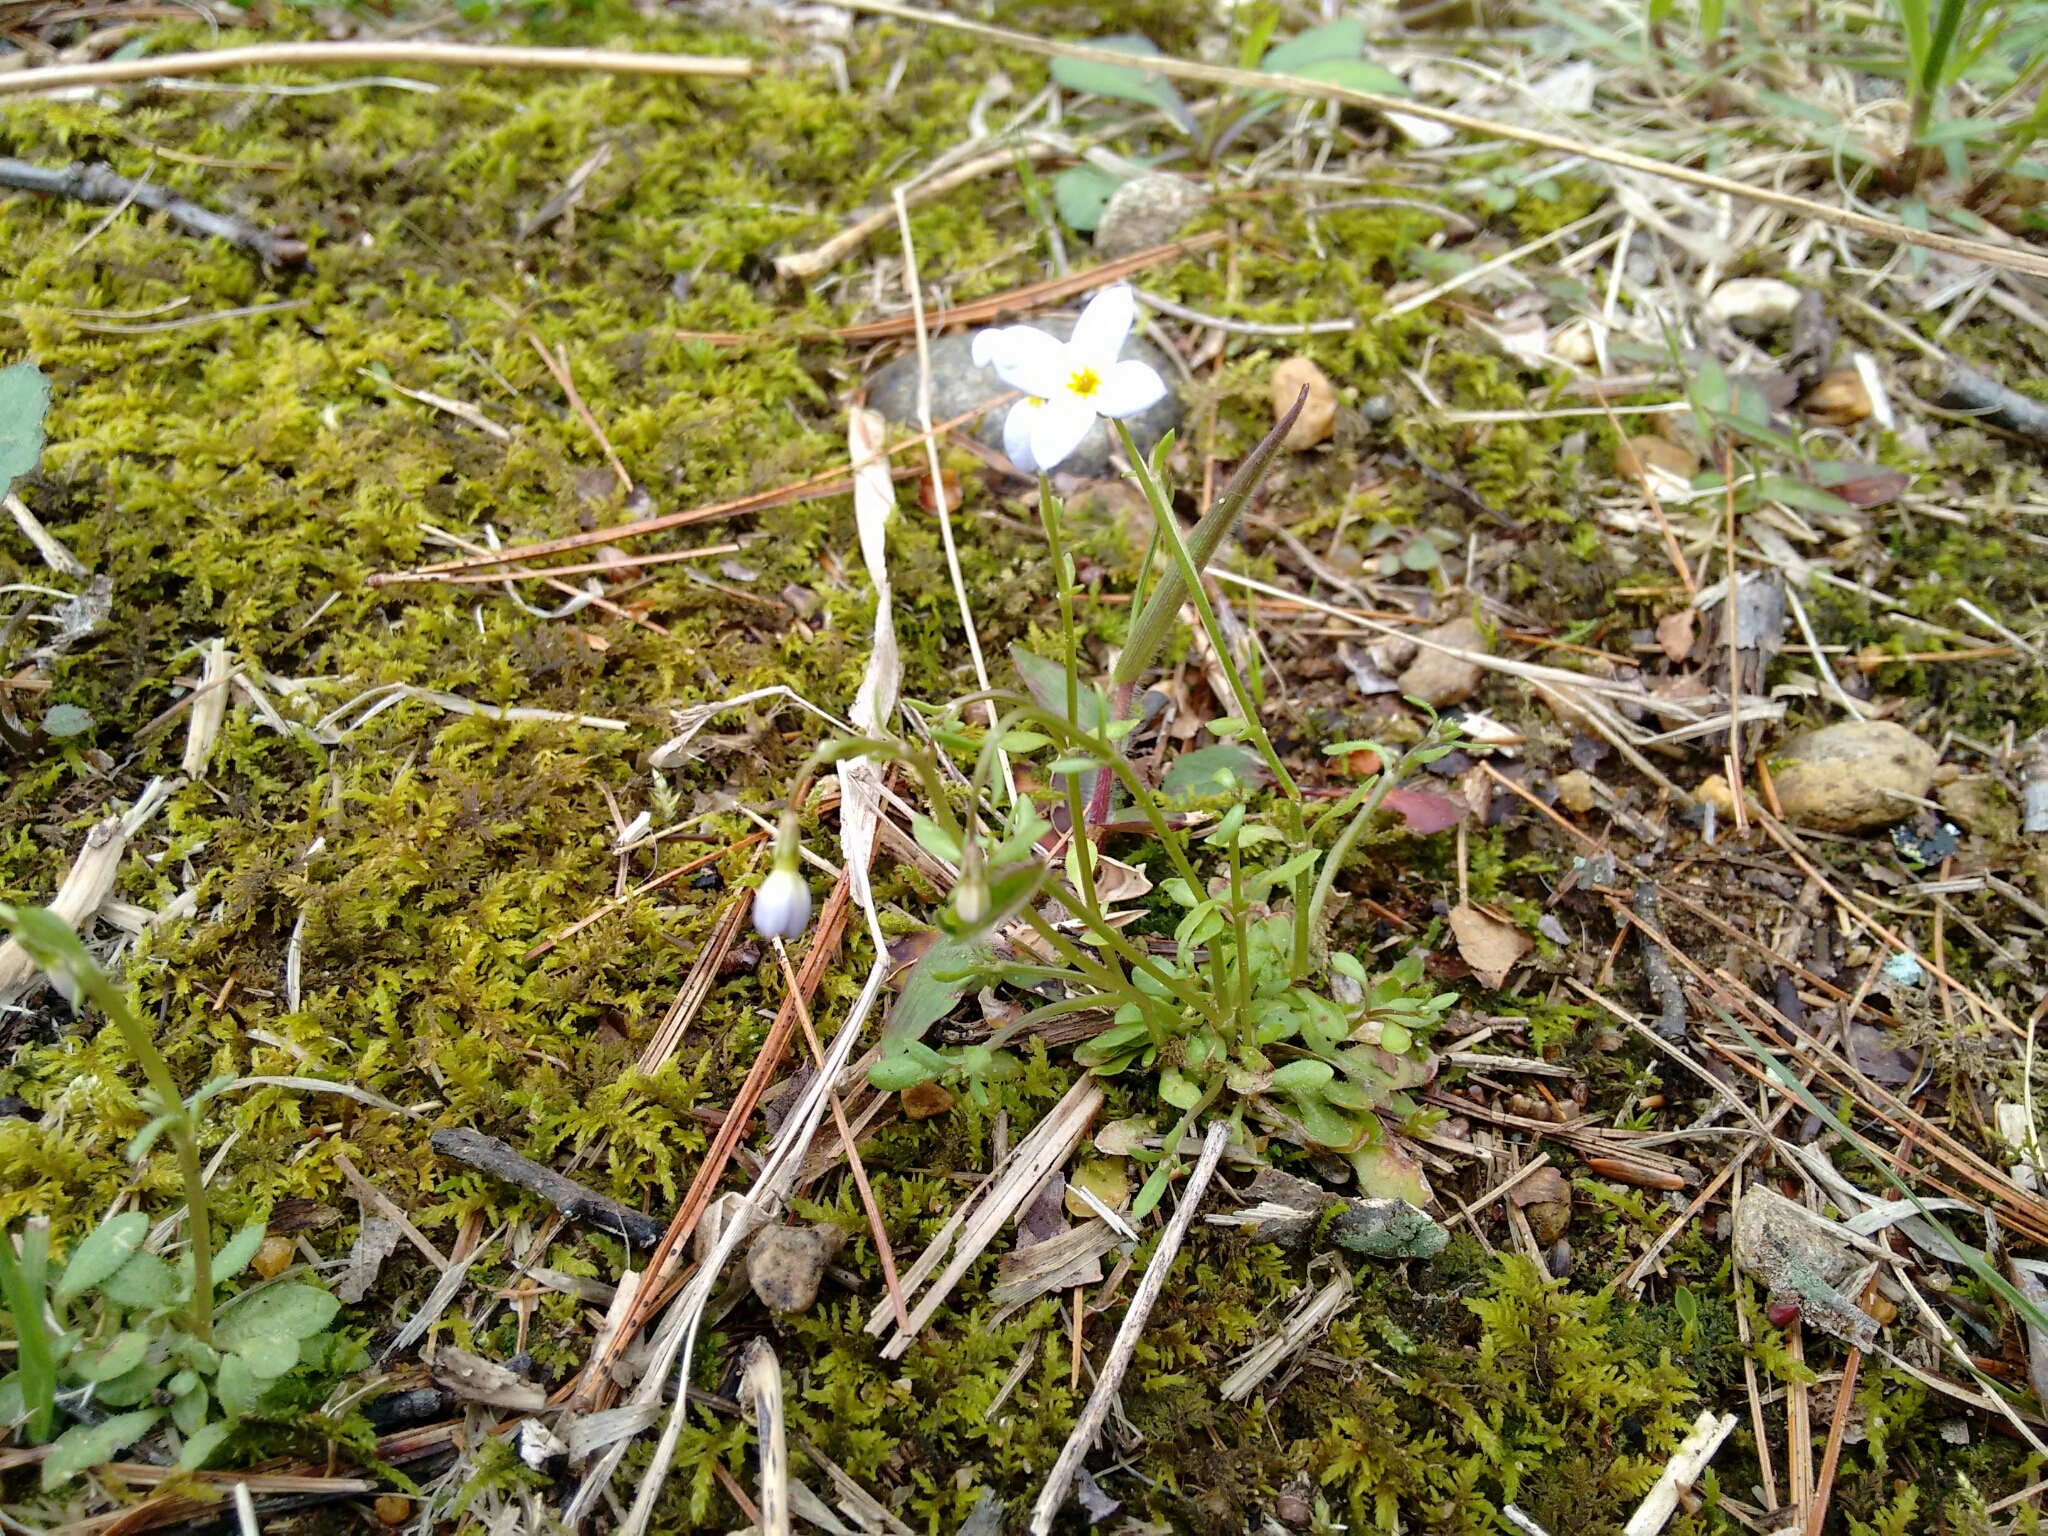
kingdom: Plantae
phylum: Tracheophyta
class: Magnoliopsida
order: Gentianales
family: Rubiaceae
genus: Houstonia
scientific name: Houstonia caerulea
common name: Bluets
